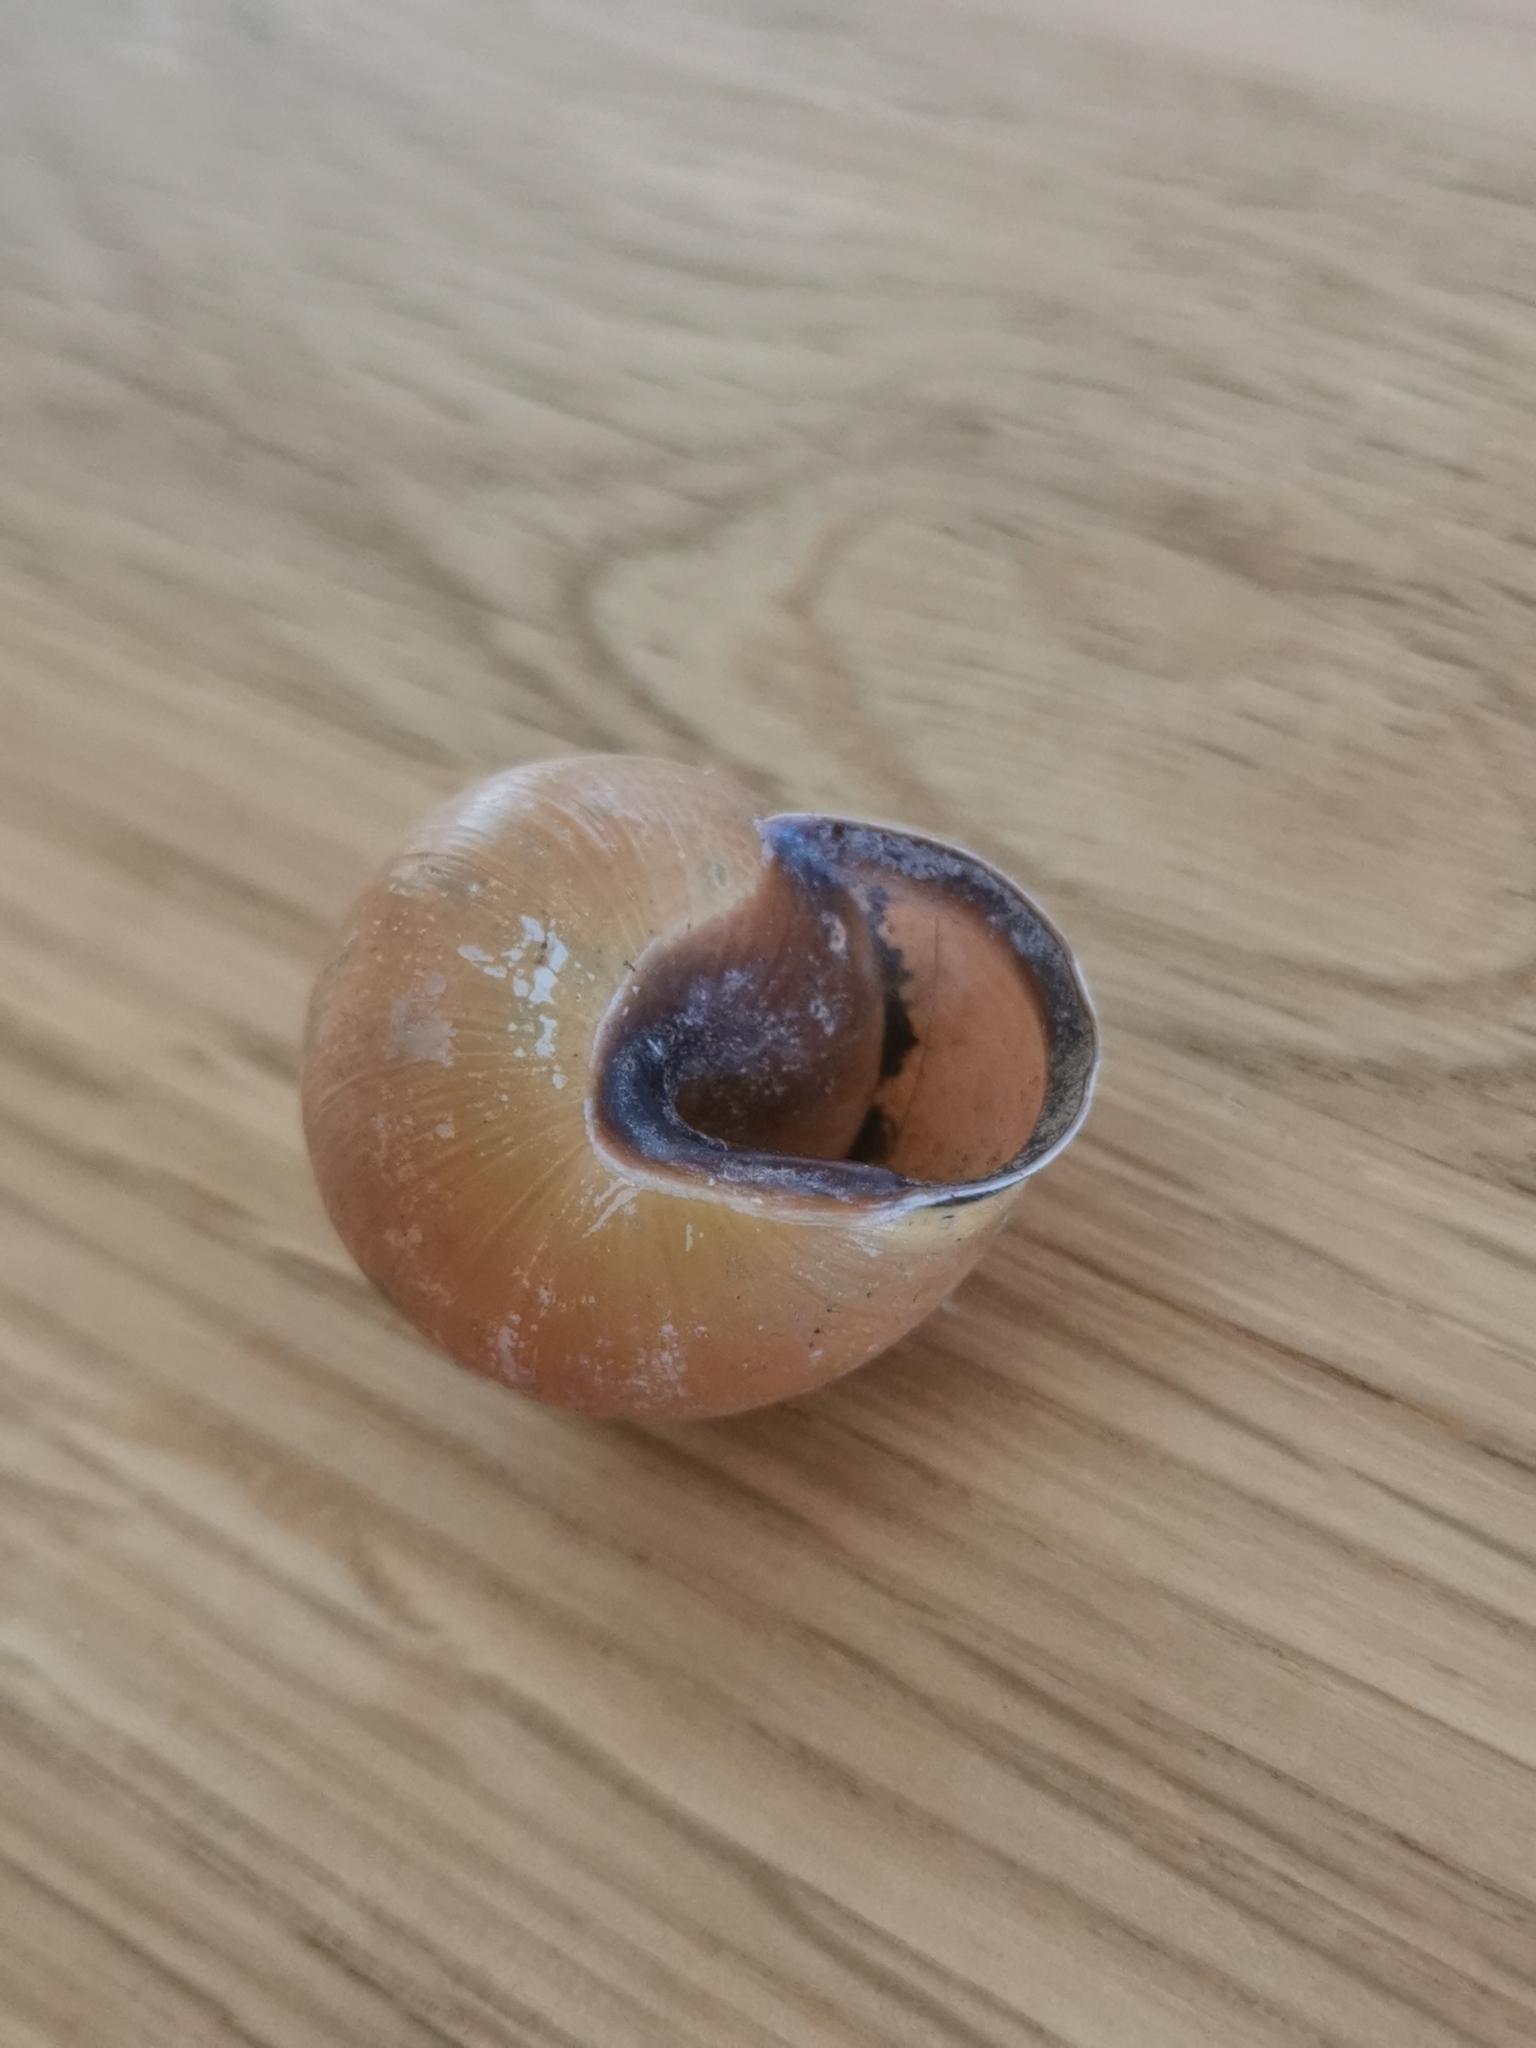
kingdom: Animalia
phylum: Mollusca
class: Gastropoda
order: Stylommatophora
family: Helicidae
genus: Cepaea
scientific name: Cepaea nemoralis
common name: Grovesnail
